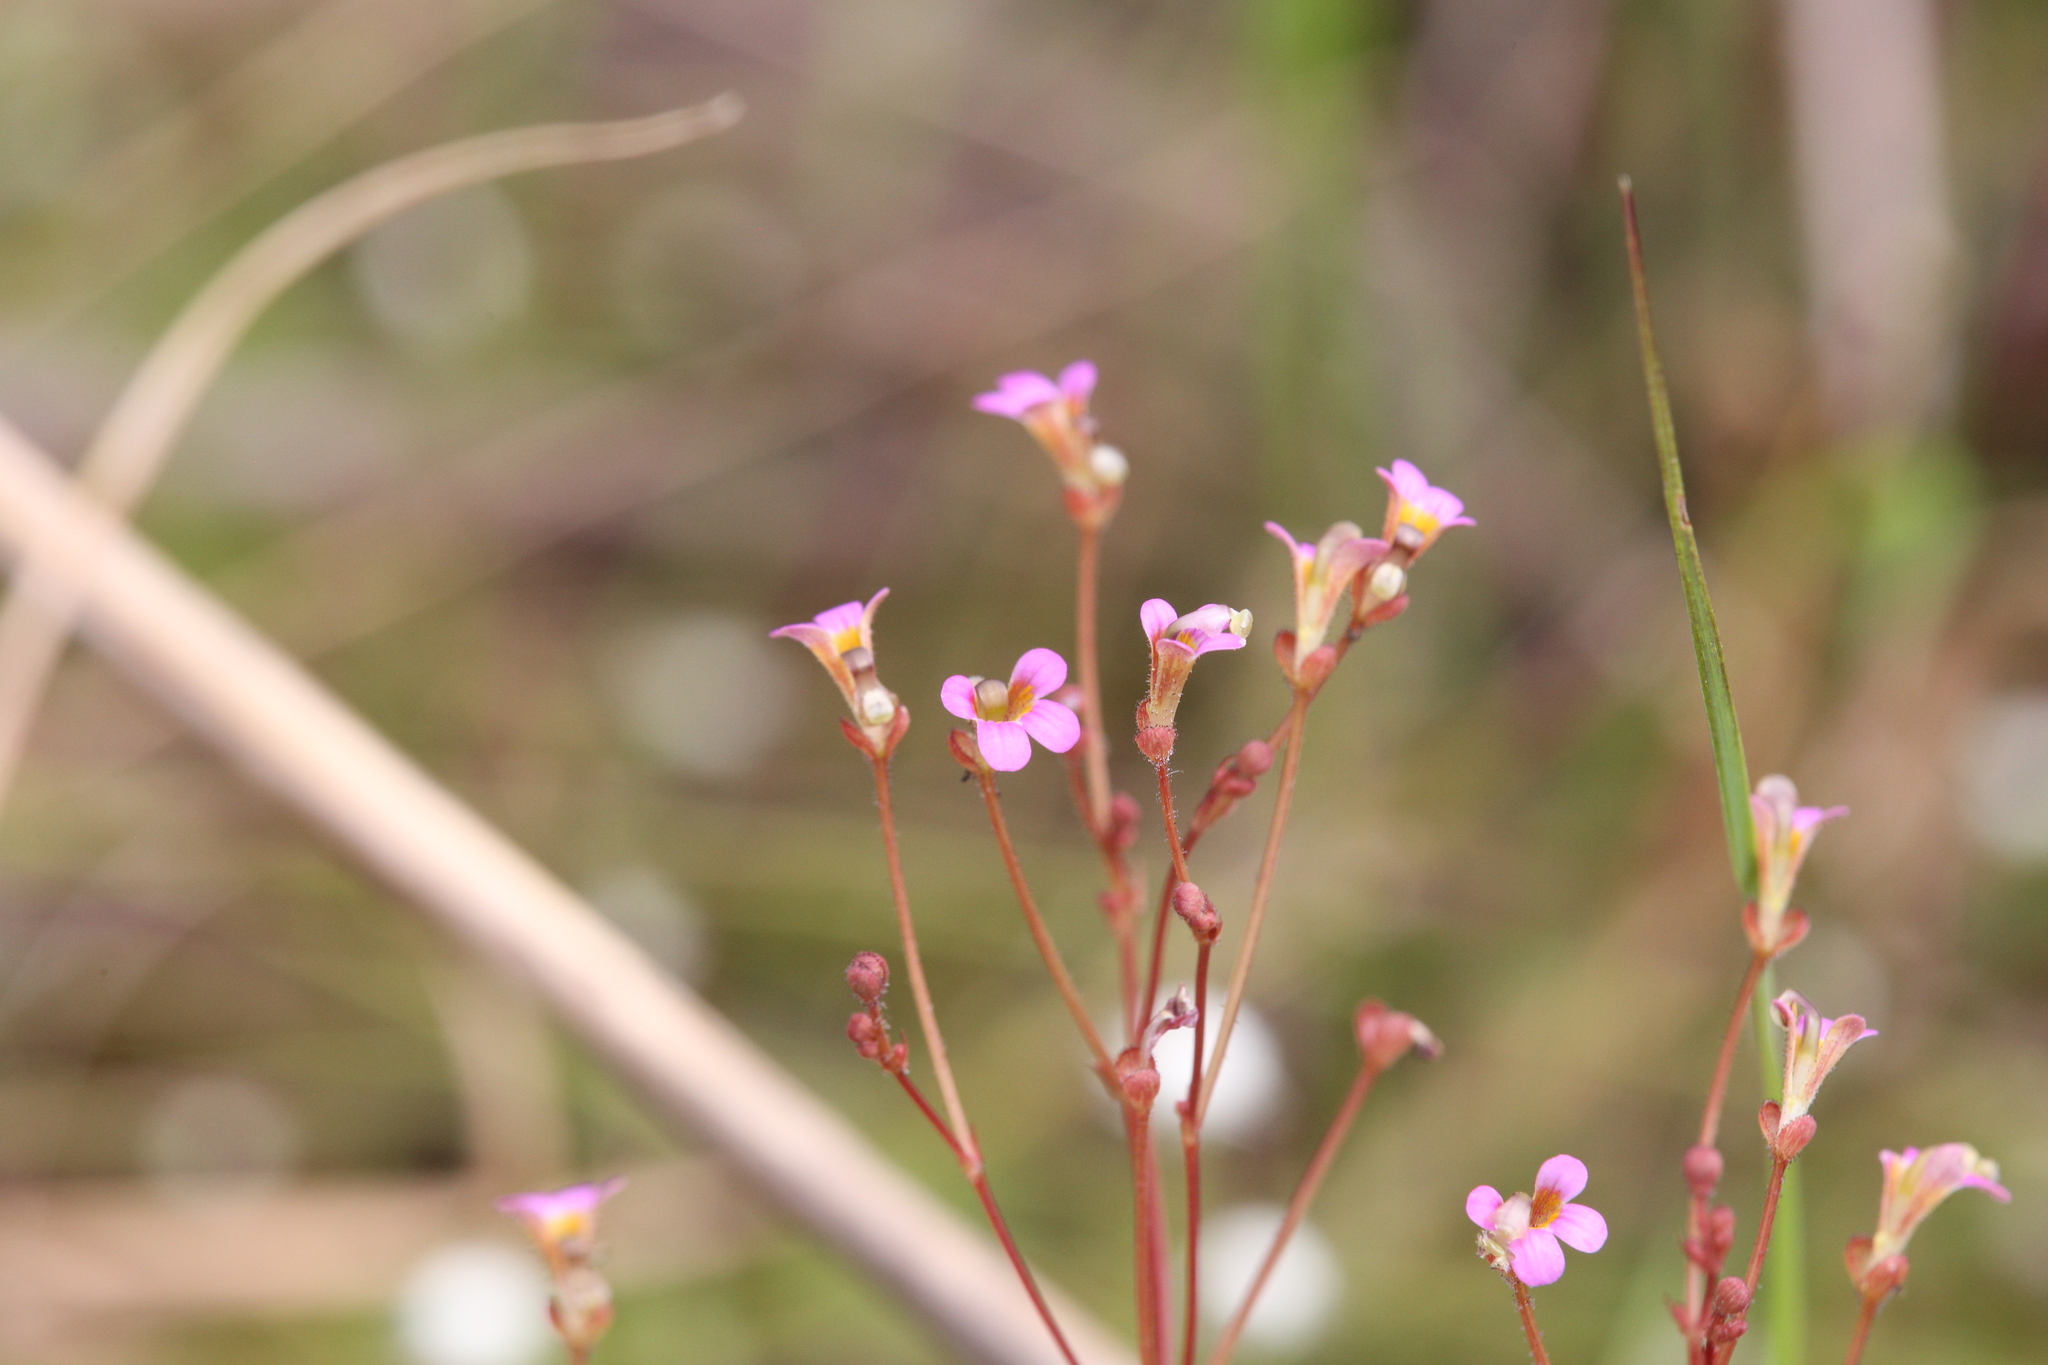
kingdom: Plantae
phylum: Tracheophyta
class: Magnoliopsida
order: Asterales
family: Stylidiaceae
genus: Stylidium
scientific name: Stylidium dunlopianum
